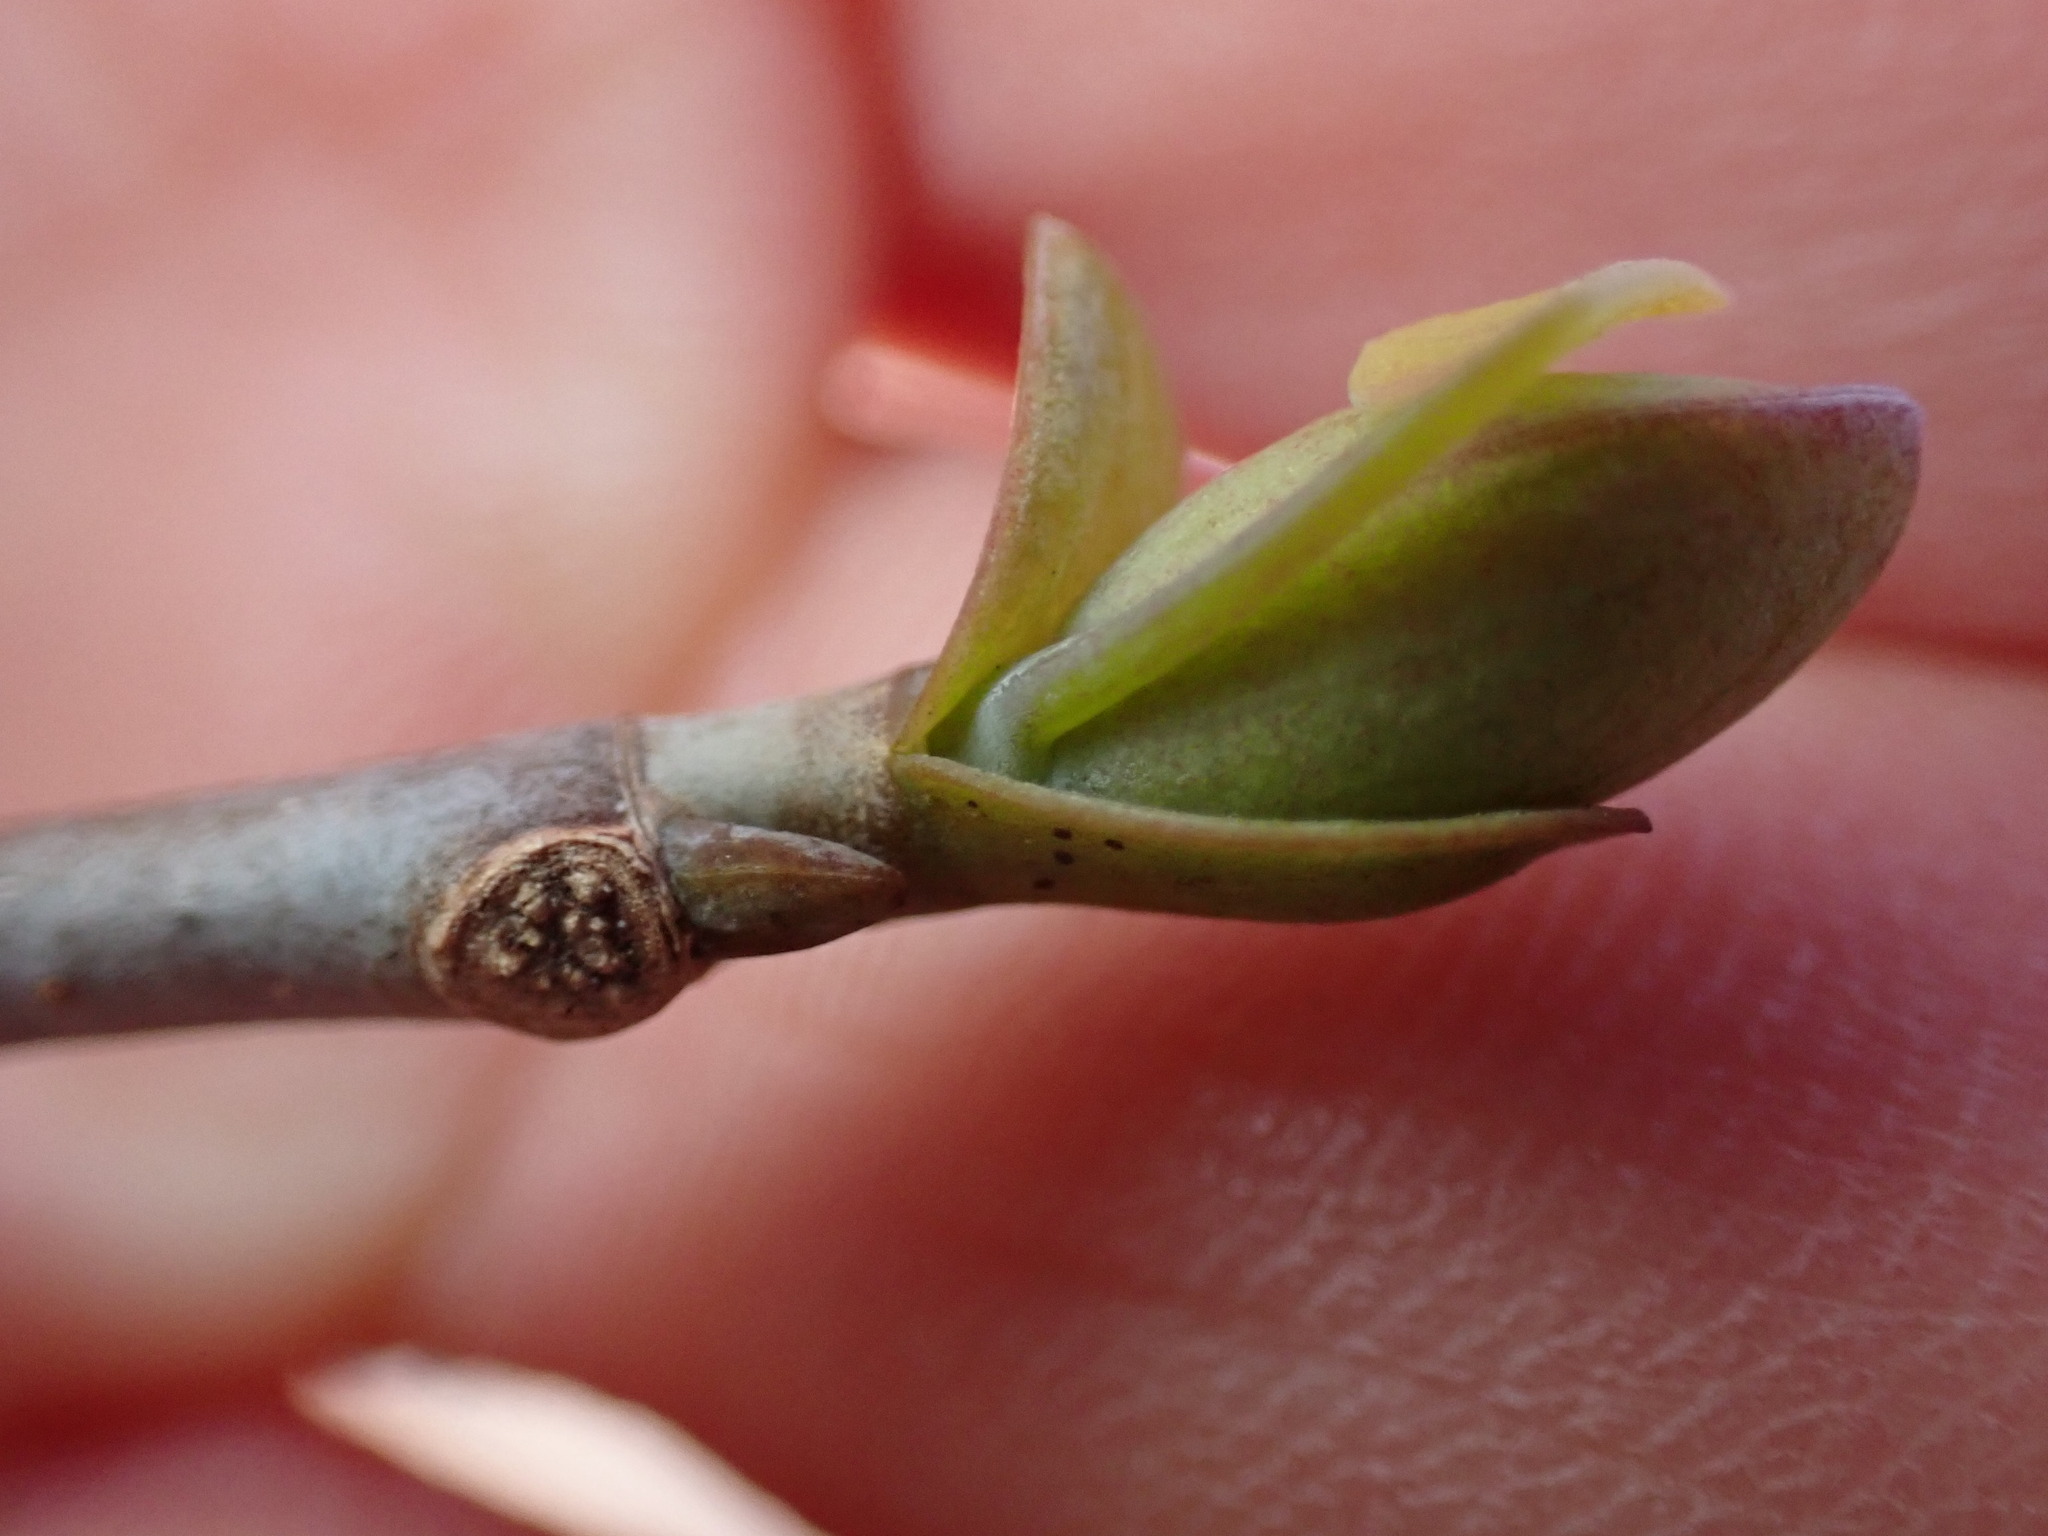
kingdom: Plantae
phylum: Tracheophyta
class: Magnoliopsida
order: Magnoliales
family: Magnoliaceae
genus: Liriodendron
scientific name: Liriodendron tulipifera
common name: Tulip tree
